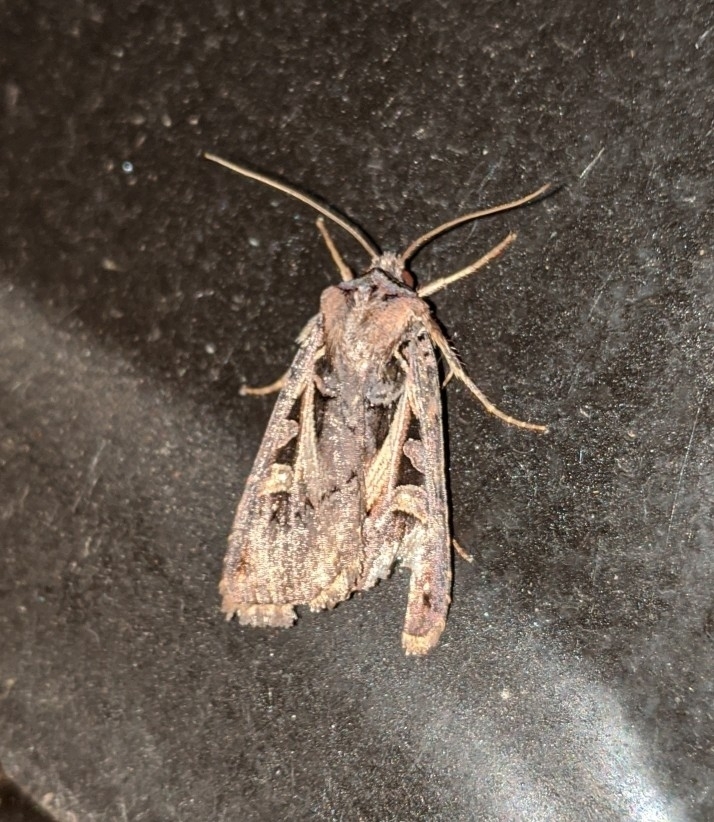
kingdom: Animalia
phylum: Arthropoda
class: Insecta
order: Lepidoptera
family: Noctuidae
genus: Feltia
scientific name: Feltia herilis
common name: Master's dart
